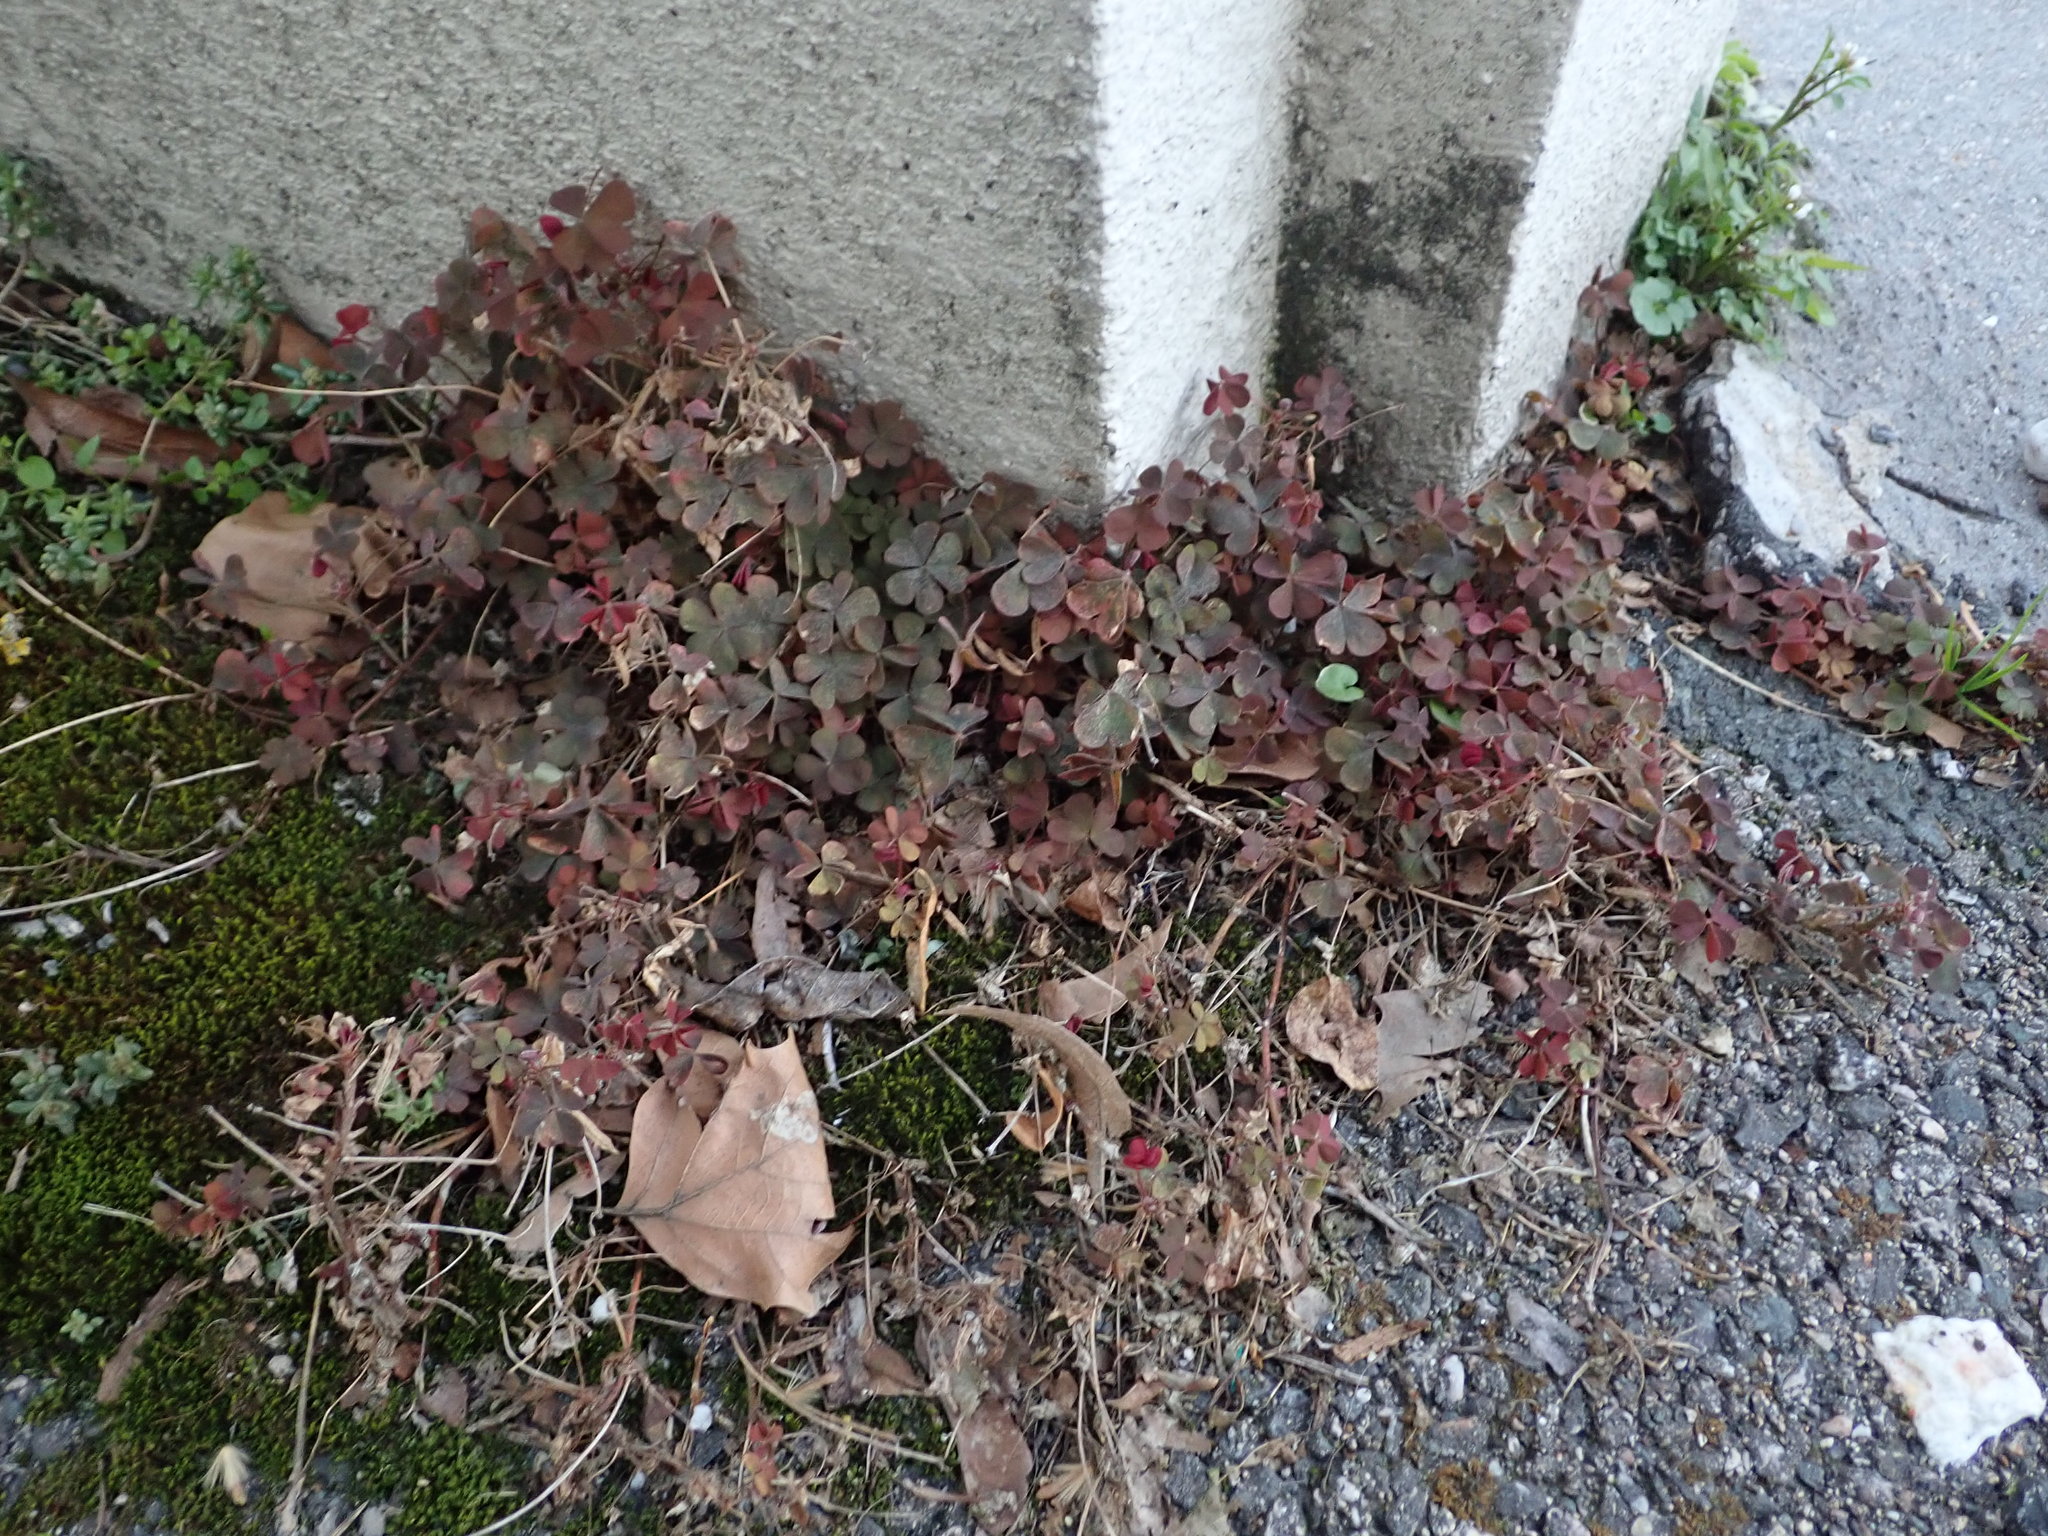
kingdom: Plantae
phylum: Tracheophyta
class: Magnoliopsida
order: Oxalidales
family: Oxalidaceae
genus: Oxalis
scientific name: Oxalis corniculata
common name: Procumbent yellow-sorrel
